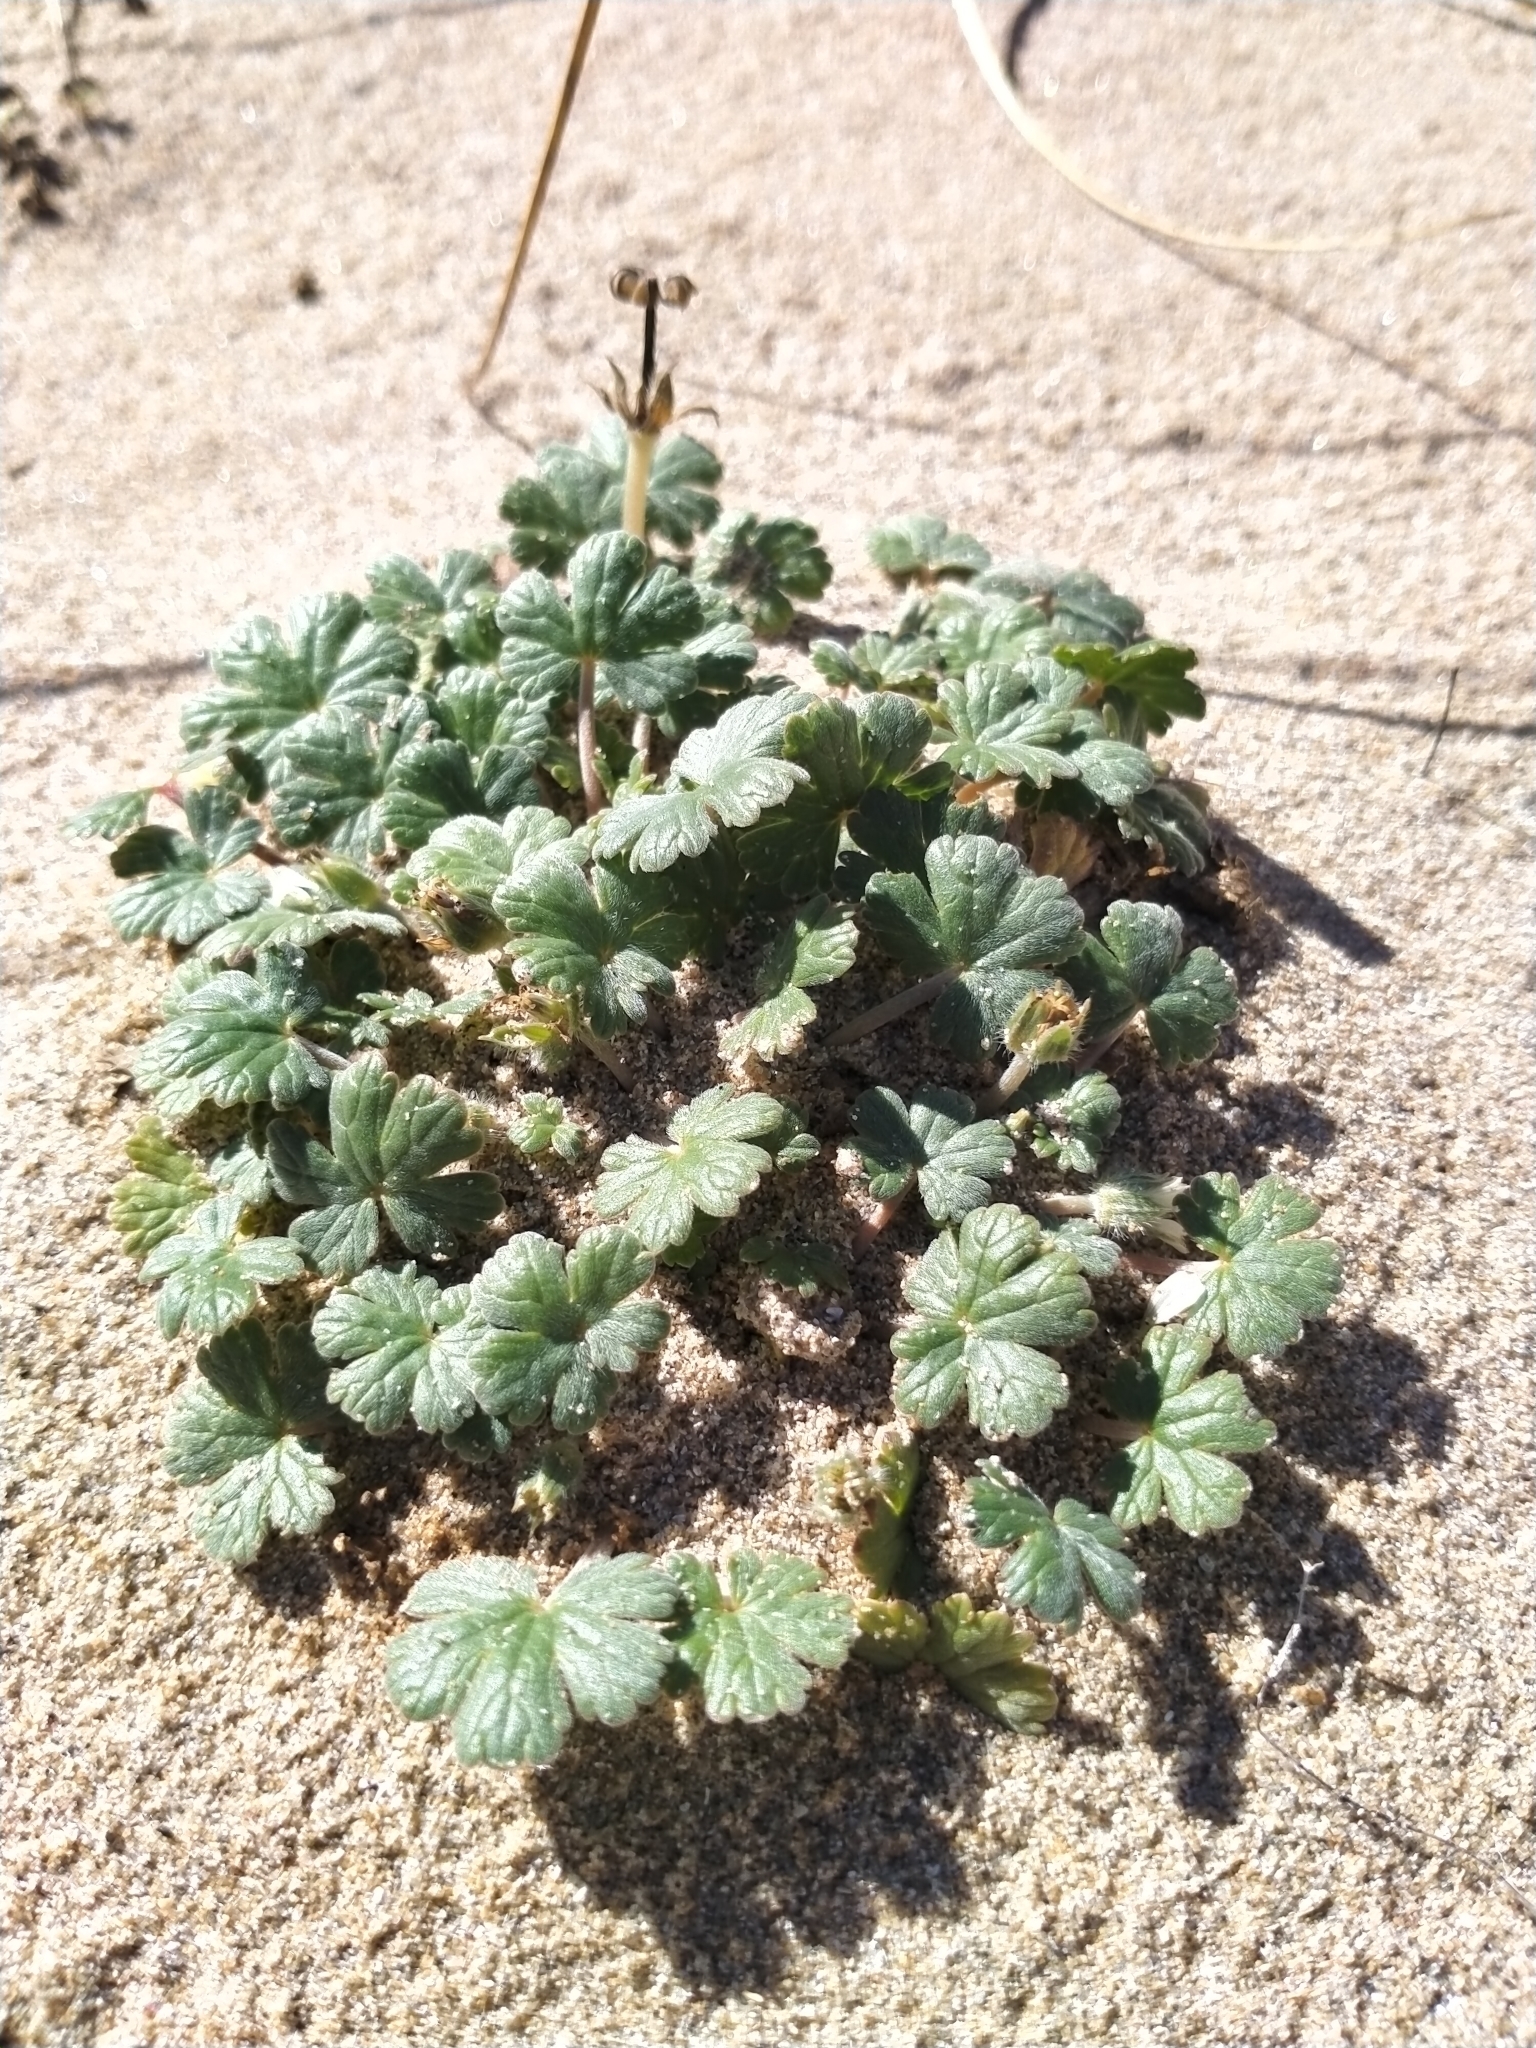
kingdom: Plantae
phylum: Tracheophyta
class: Magnoliopsida
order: Geraniales
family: Geraniaceae
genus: Geranium
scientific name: Geranium brevicaule
